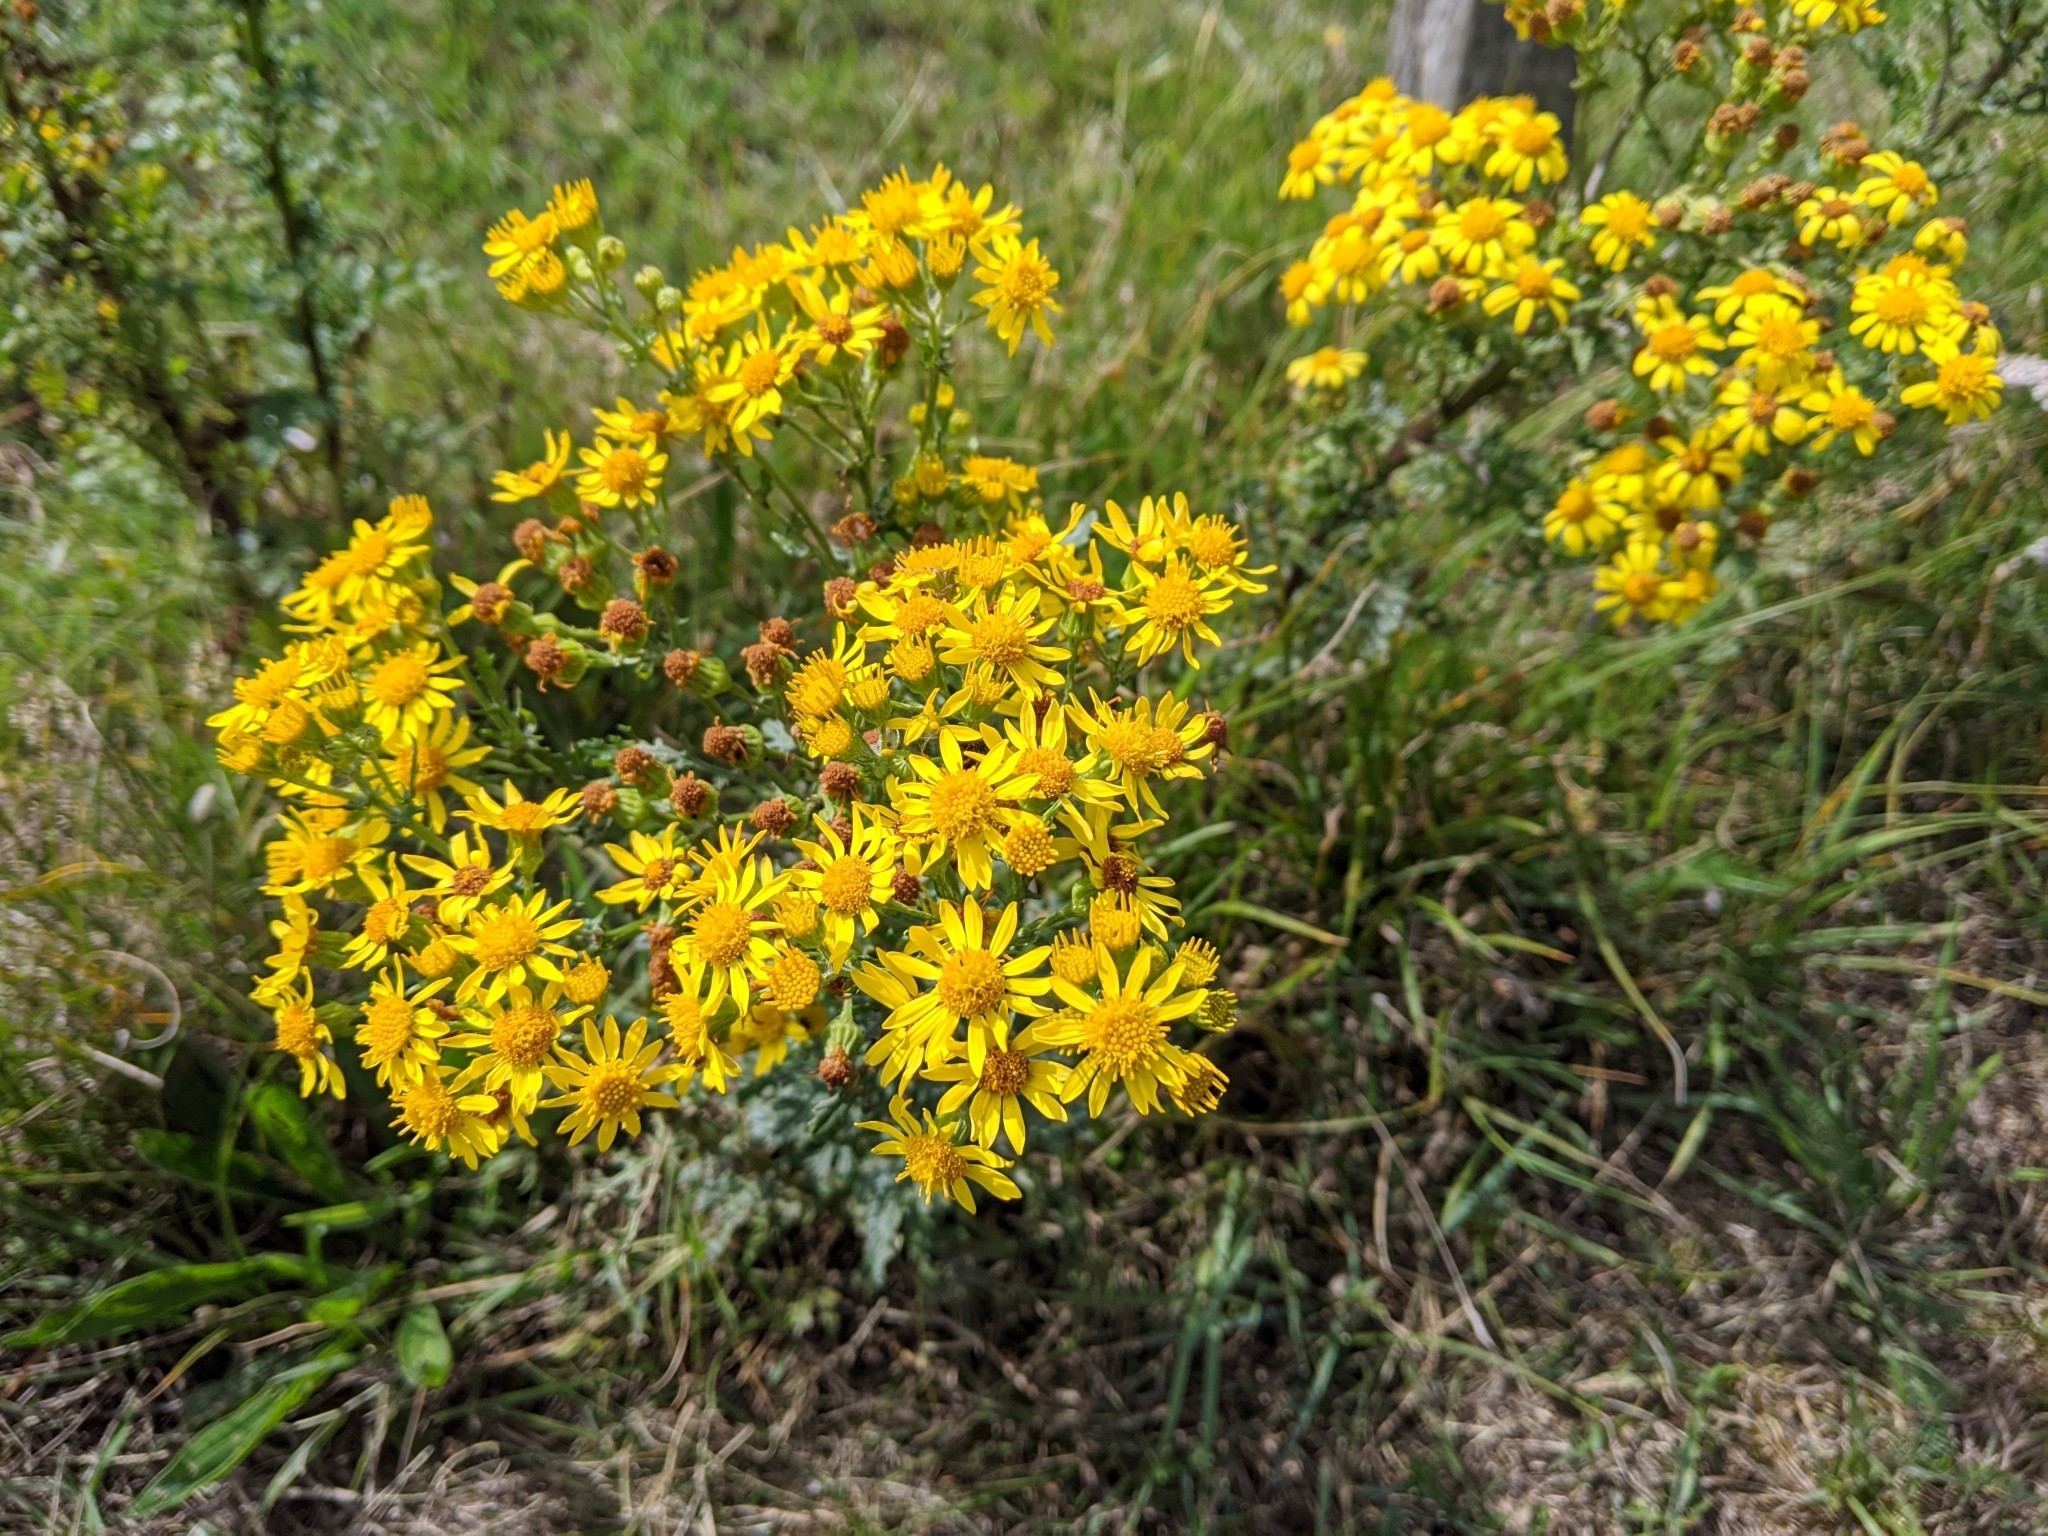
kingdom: Plantae
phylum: Tracheophyta
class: Magnoliopsida
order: Asterales
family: Asteraceae
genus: Jacobaea
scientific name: Jacobaea vulgaris
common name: Stinking willie
